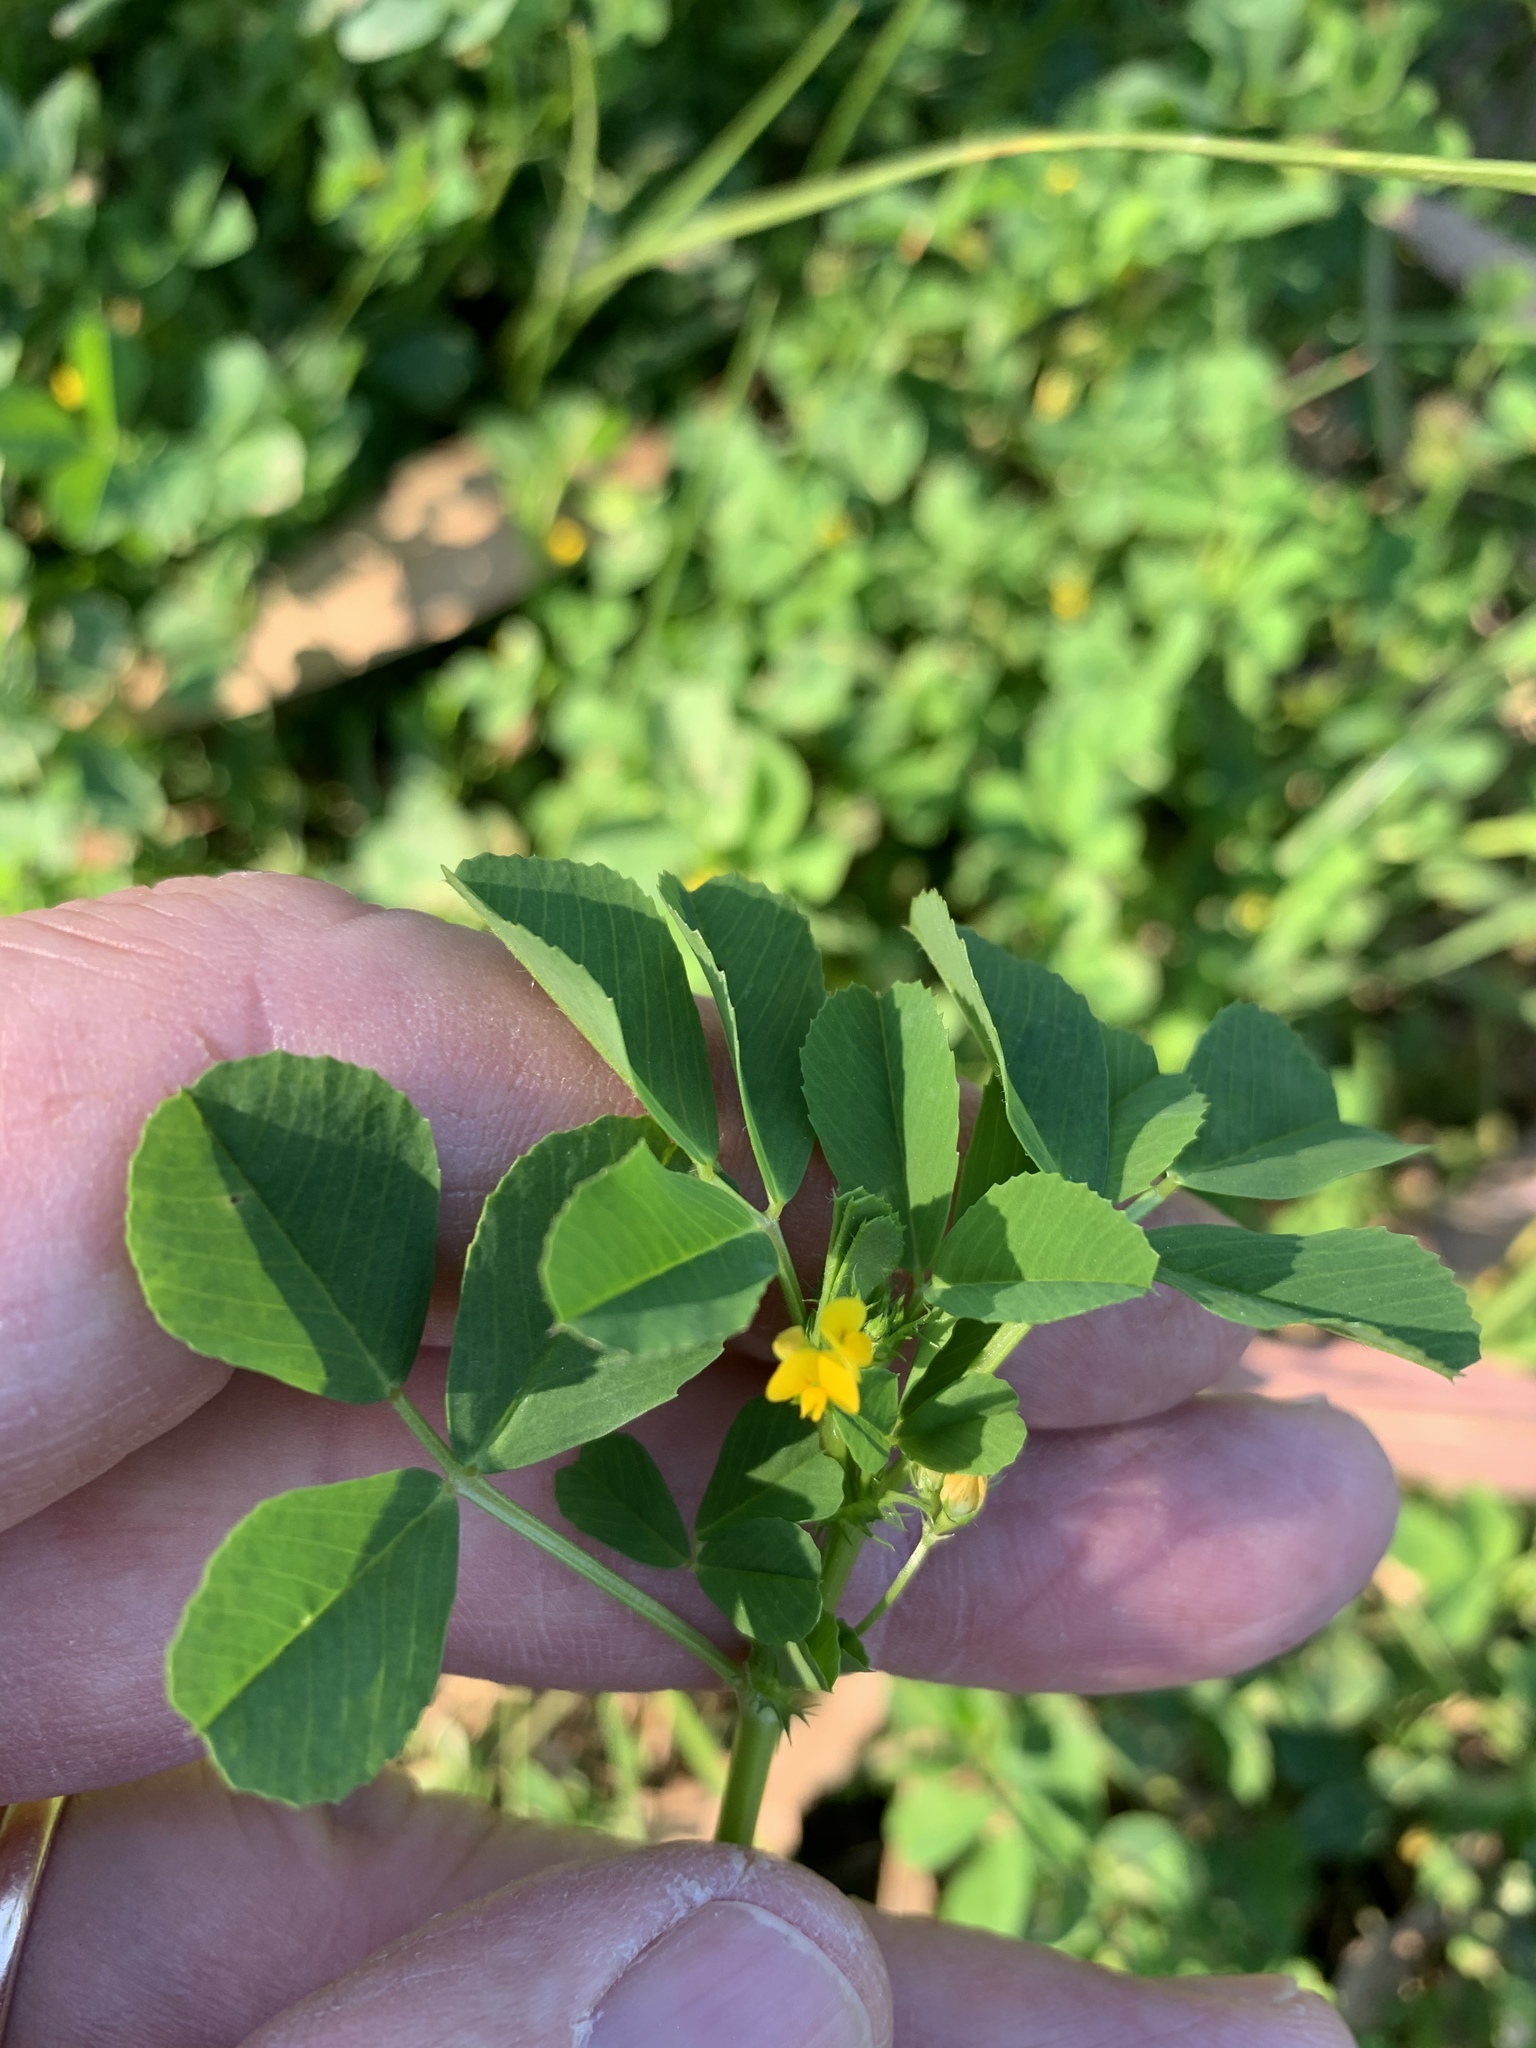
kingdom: Plantae
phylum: Tracheophyta
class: Magnoliopsida
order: Fabales
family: Fabaceae
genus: Medicago
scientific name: Medicago polymorpha
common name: Burclover
